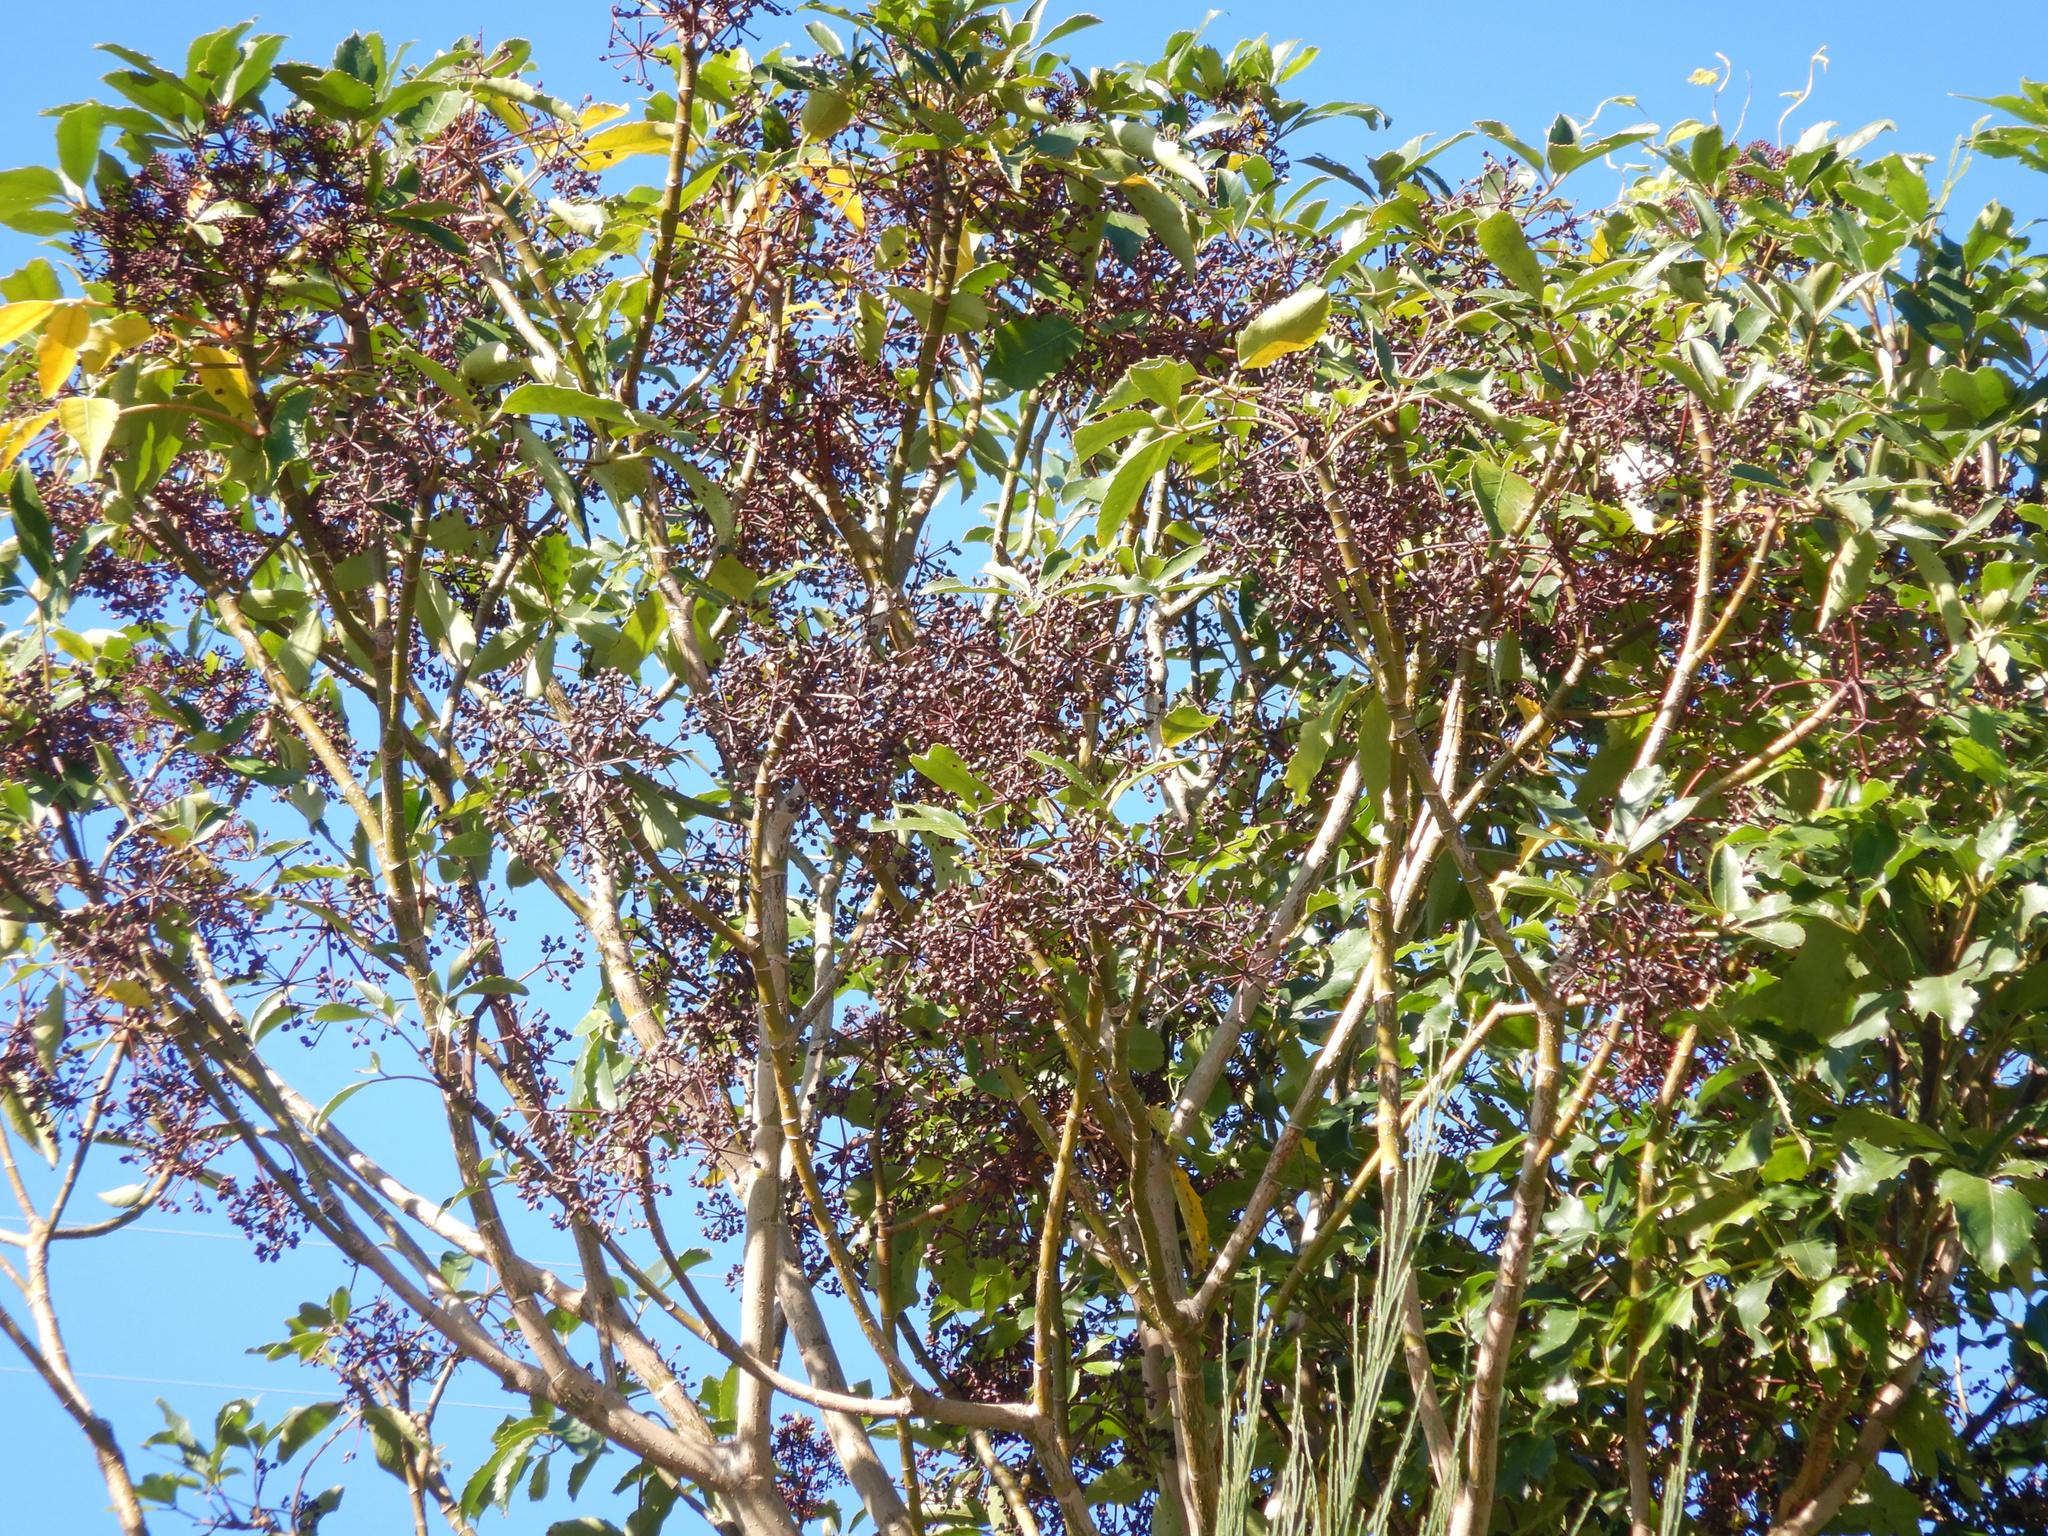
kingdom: Plantae
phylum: Tracheophyta
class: Magnoliopsida
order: Apiales
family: Araliaceae
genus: Neopanax
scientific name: Neopanax arboreus
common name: Five-fingers
